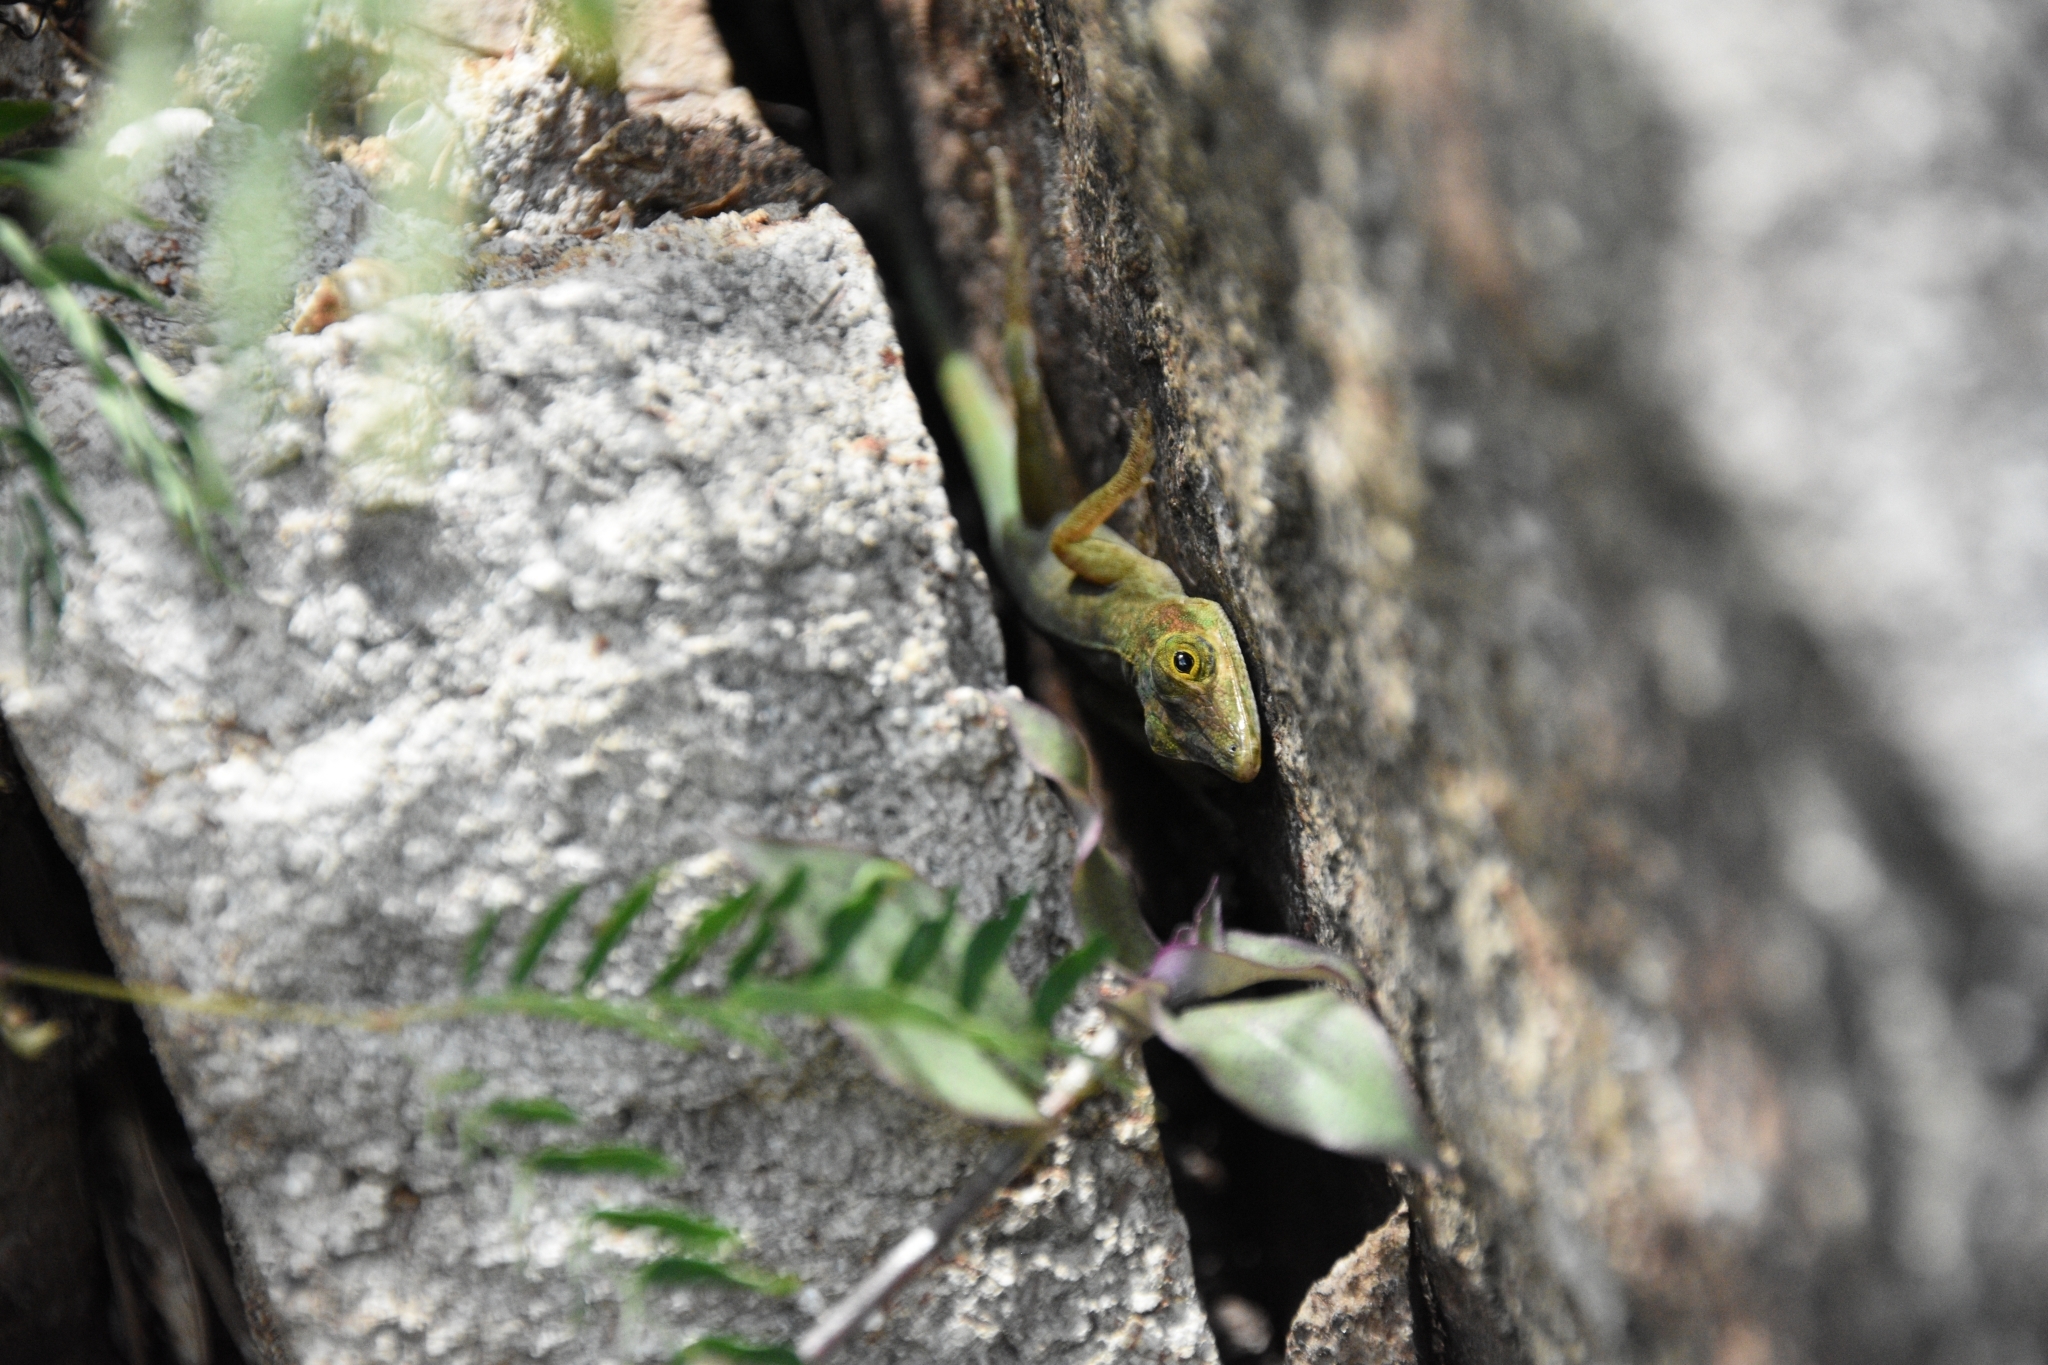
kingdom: Animalia
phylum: Chordata
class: Squamata
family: Dactyloidae
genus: Anolis
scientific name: Anolis richardii
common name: Grenada tree anole
